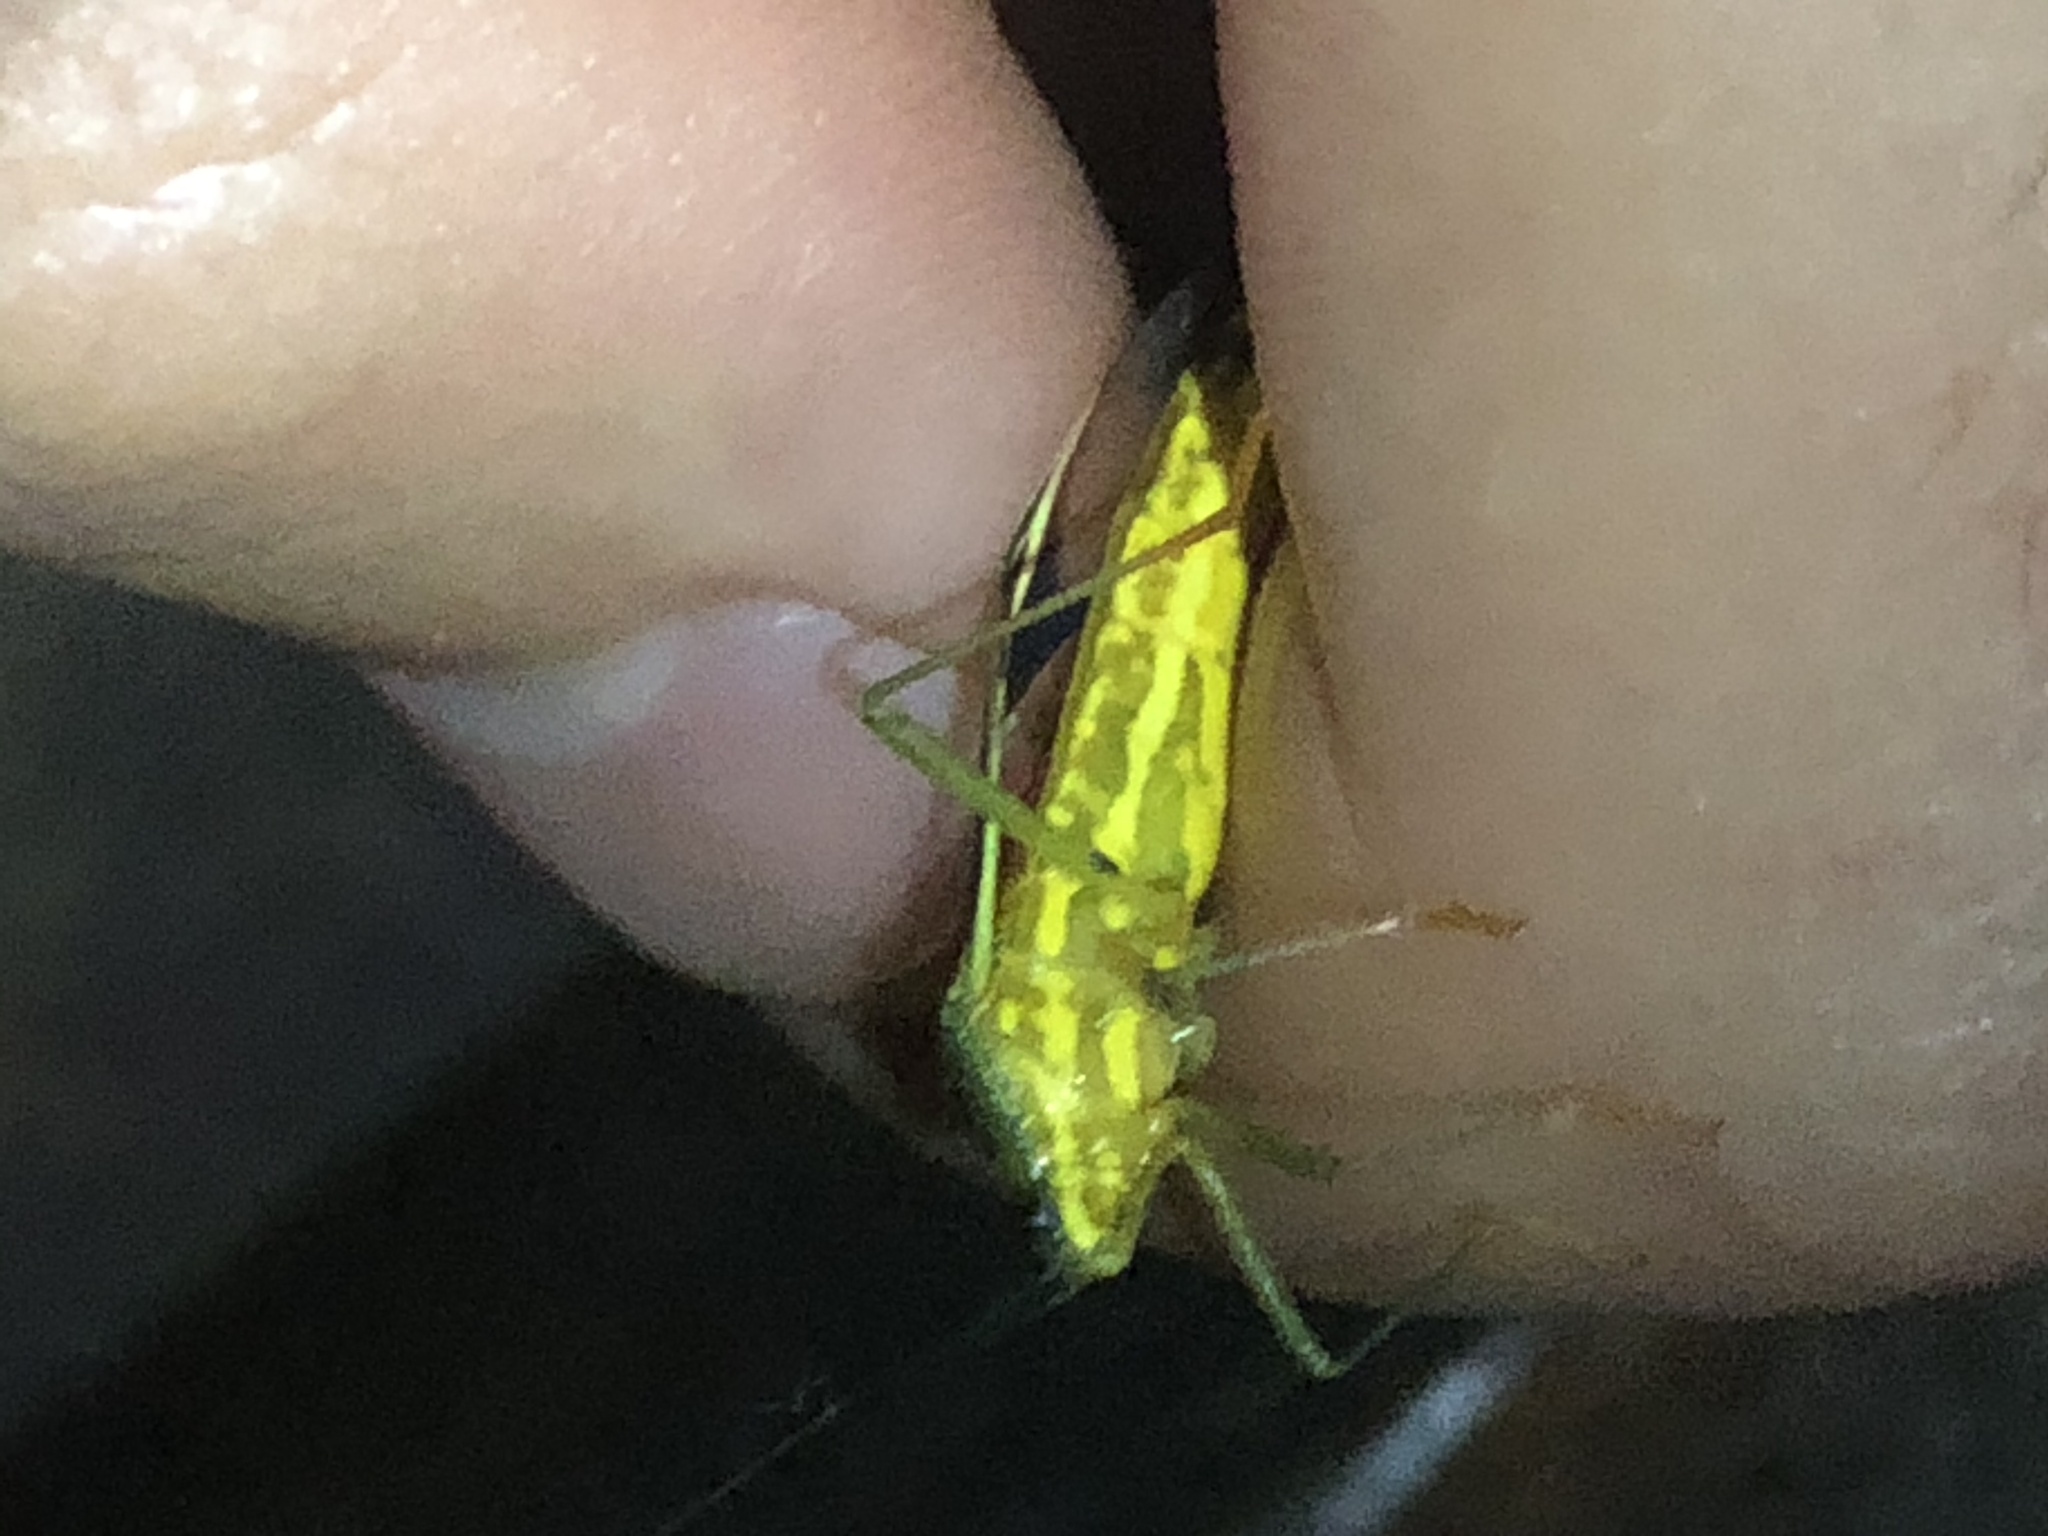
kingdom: Animalia
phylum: Arthropoda
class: Insecta
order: Hemiptera
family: Coreidae
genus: Cnemomis
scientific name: Cnemomis gracilis
